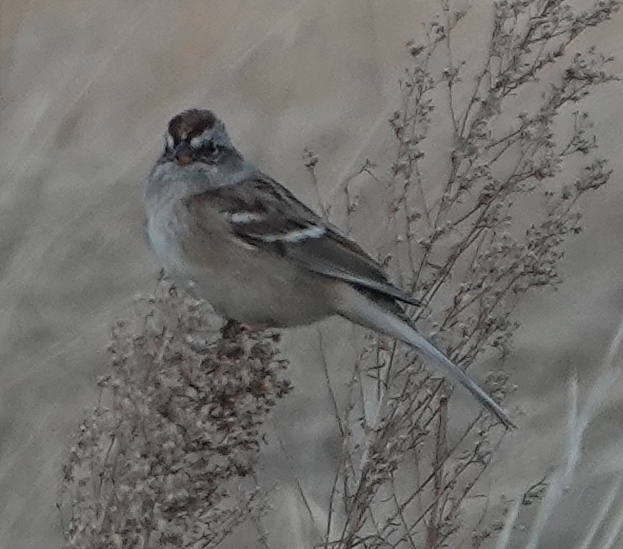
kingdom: Animalia
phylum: Chordata
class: Aves
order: Passeriformes
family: Passerellidae
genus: Spizelloides
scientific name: Spizelloides arborea
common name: American tree sparrow
